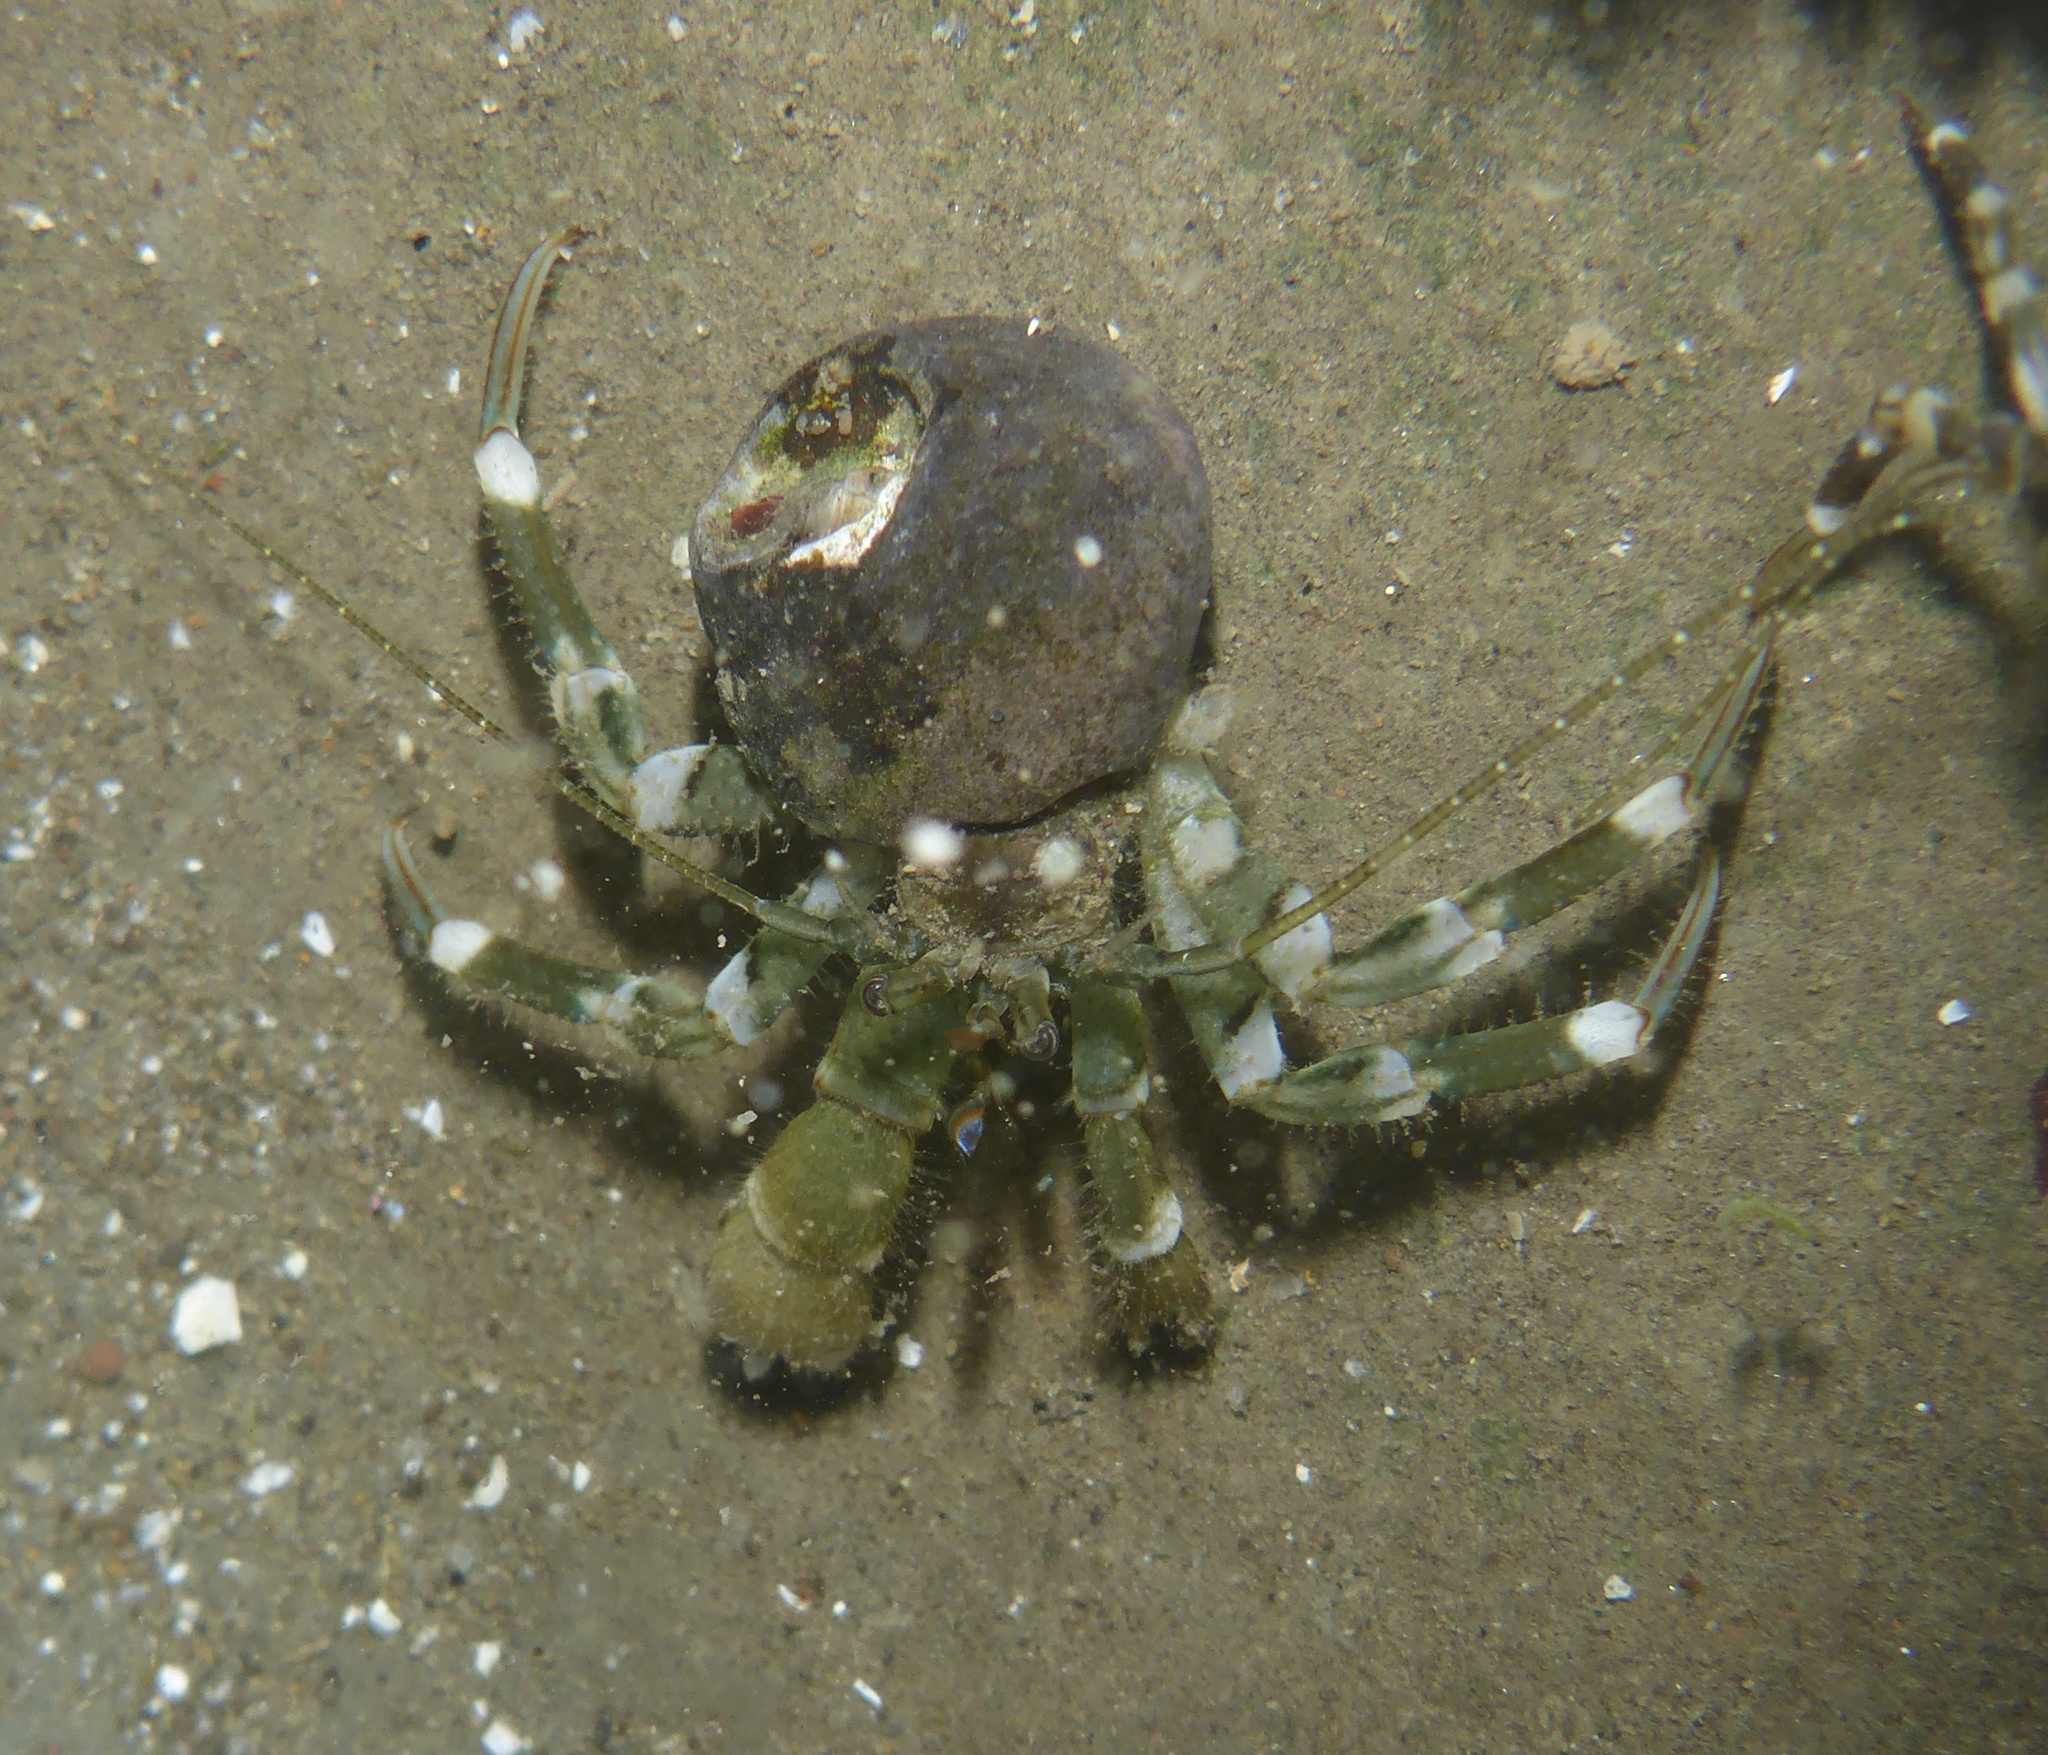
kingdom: Animalia
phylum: Arthropoda
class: Malacostraca
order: Decapoda
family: Paguridae
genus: Pagurus
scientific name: Pagurus hirsutiusculus
